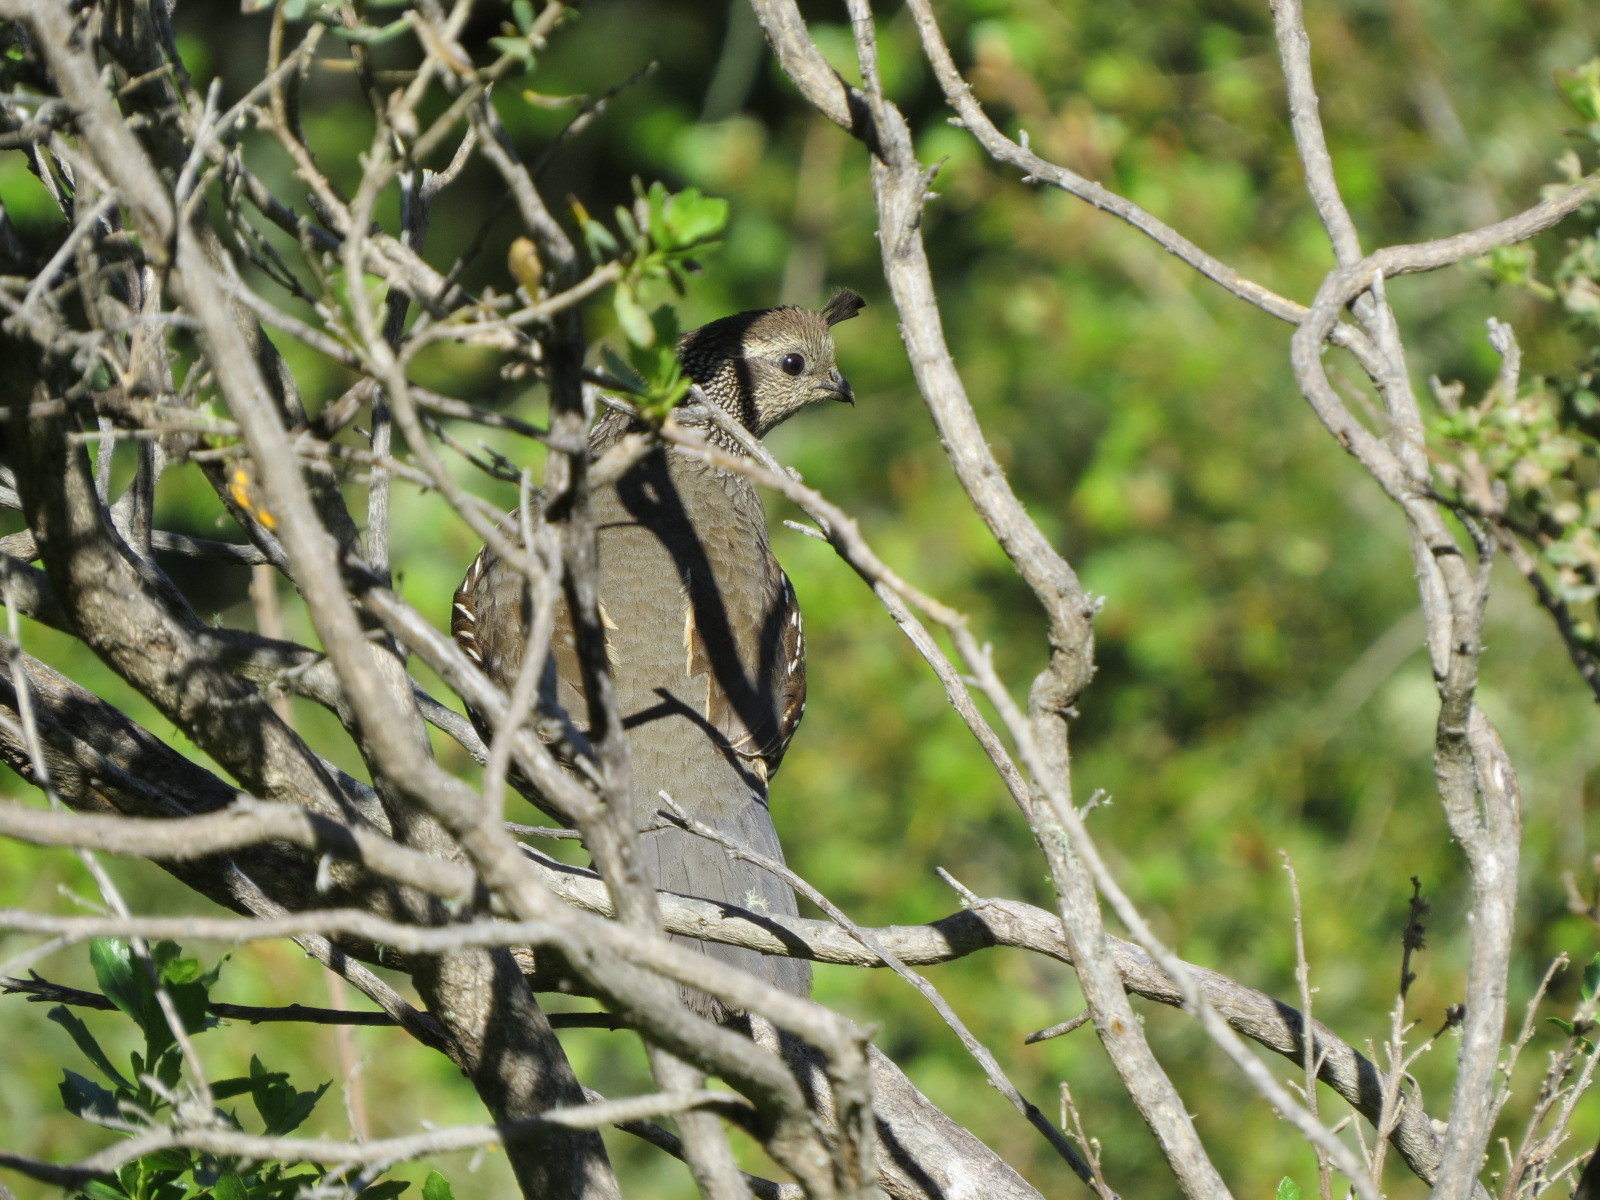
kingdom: Animalia
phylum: Chordata
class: Aves
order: Galliformes
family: Odontophoridae
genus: Callipepla
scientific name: Callipepla californica
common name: California quail
